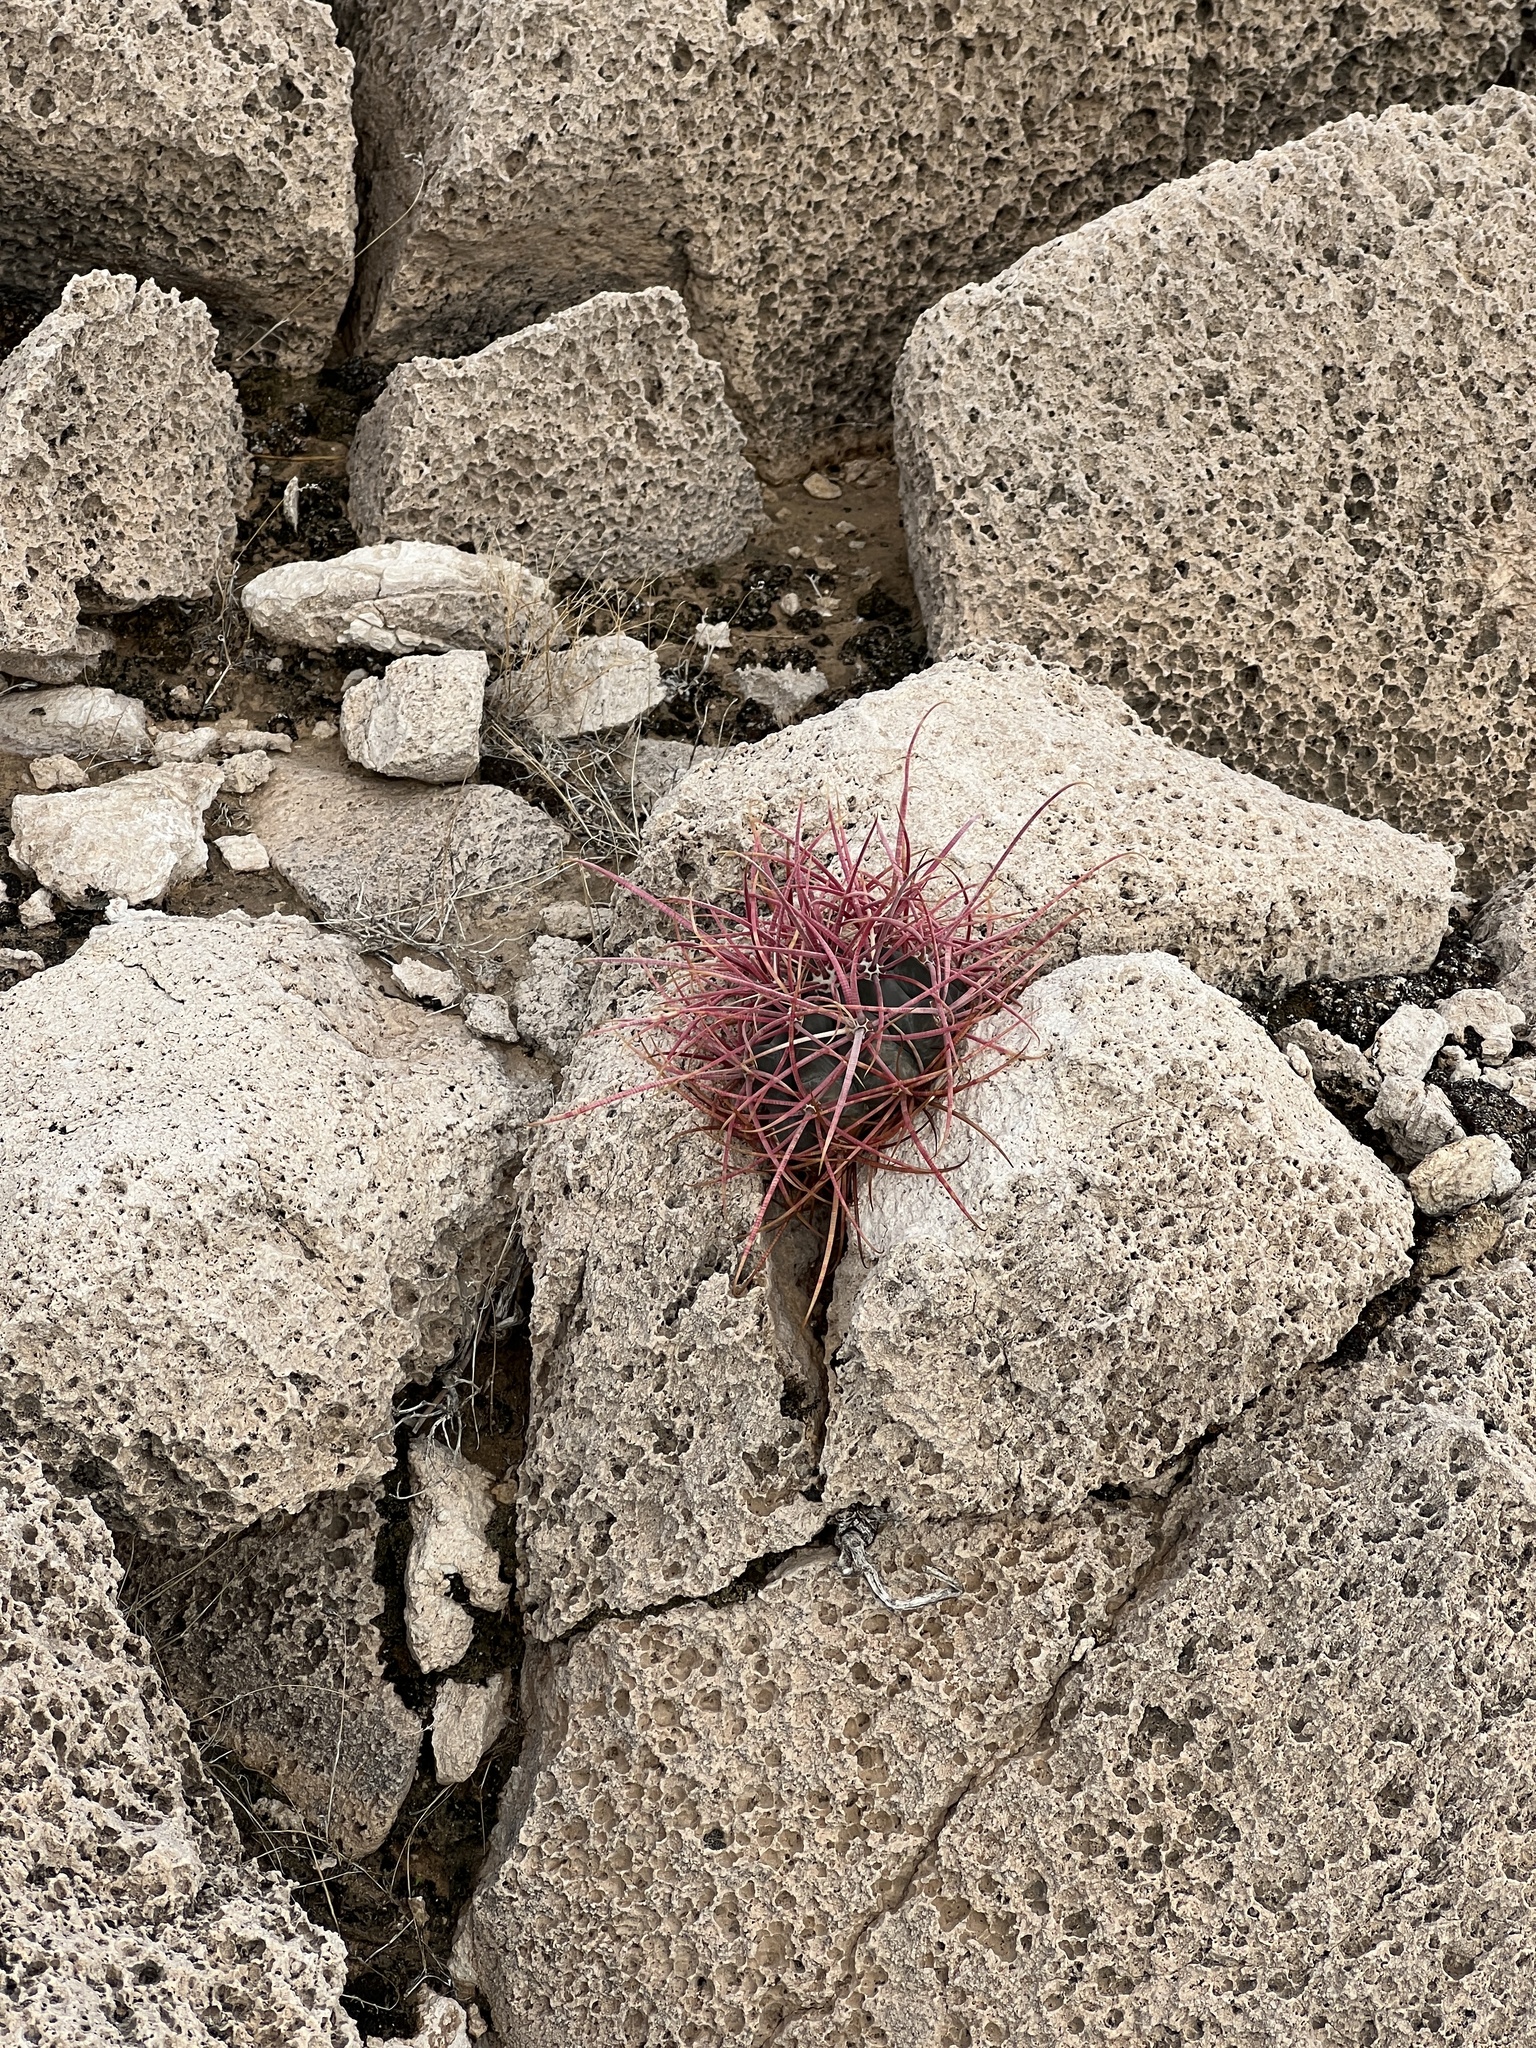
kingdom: Plantae
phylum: Tracheophyta
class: Magnoliopsida
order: Caryophyllales
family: Cactaceae
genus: Ferocactus
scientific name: Ferocactus cylindraceus
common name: California barrel cactus
